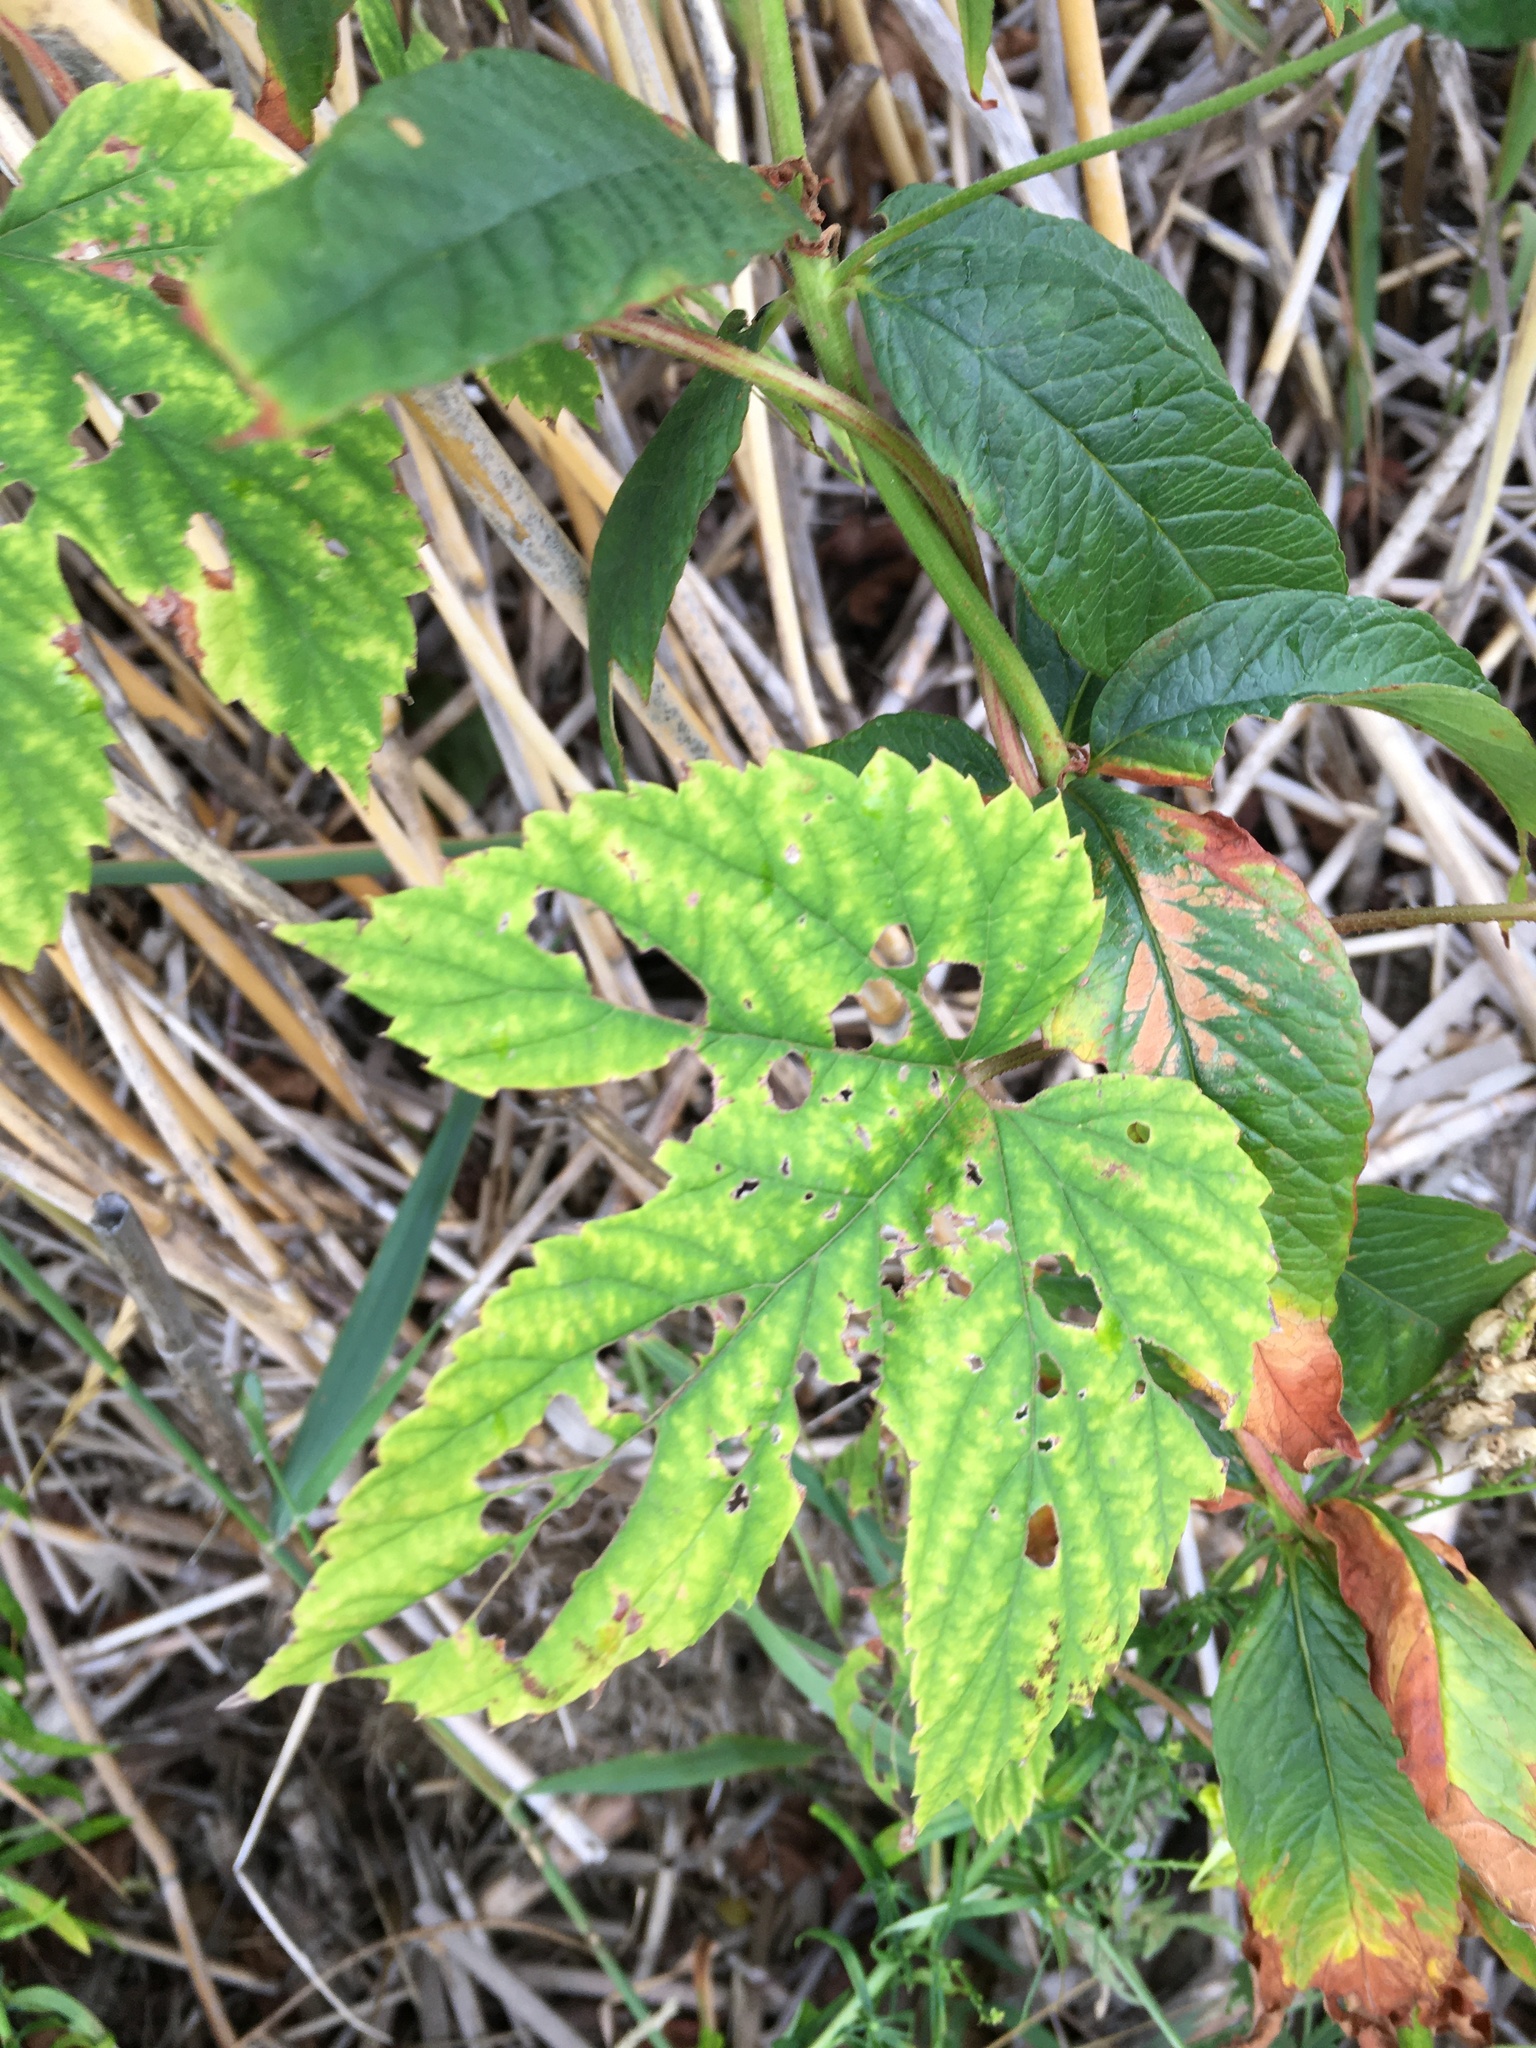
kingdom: Plantae
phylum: Tracheophyta
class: Magnoliopsida
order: Rosales
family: Cannabaceae
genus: Humulus
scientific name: Humulus lupulus
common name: Hop
